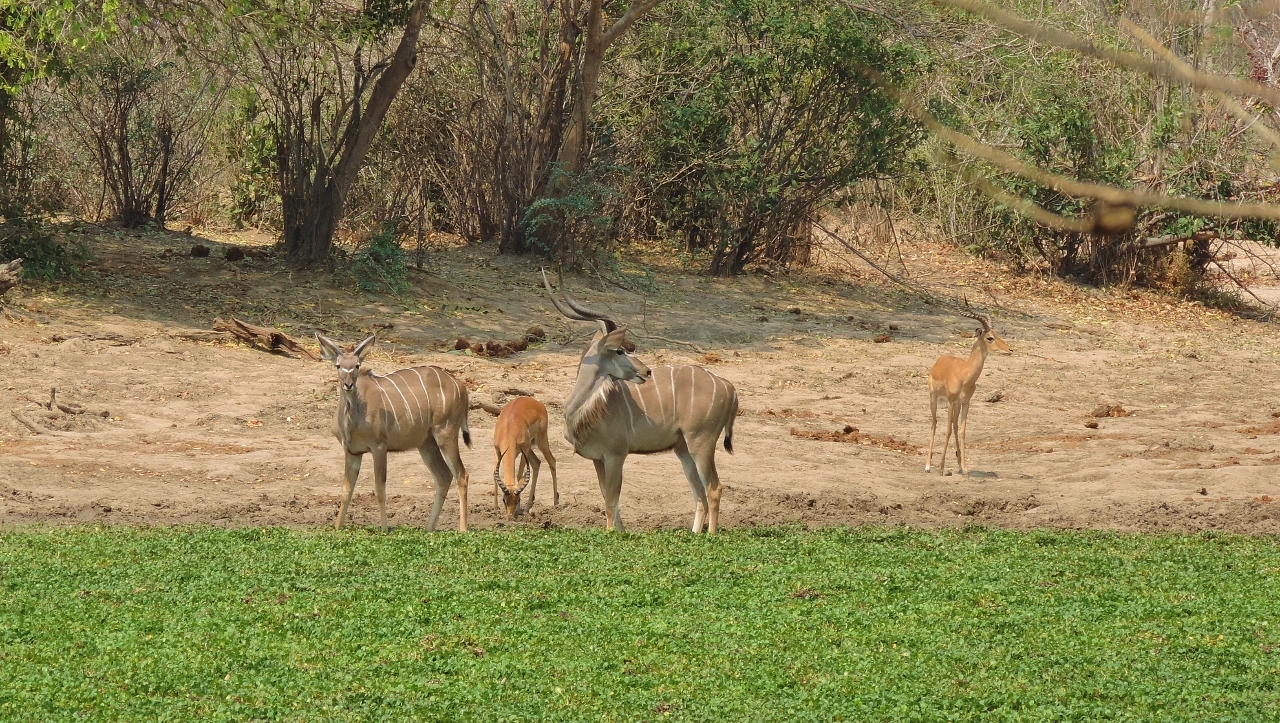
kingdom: Animalia
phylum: Chordata
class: Mammalia
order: Artiodactyla
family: Bovidae
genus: Tragelaphus
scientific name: Tragelaphus strepsiceros
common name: Greater kudu
